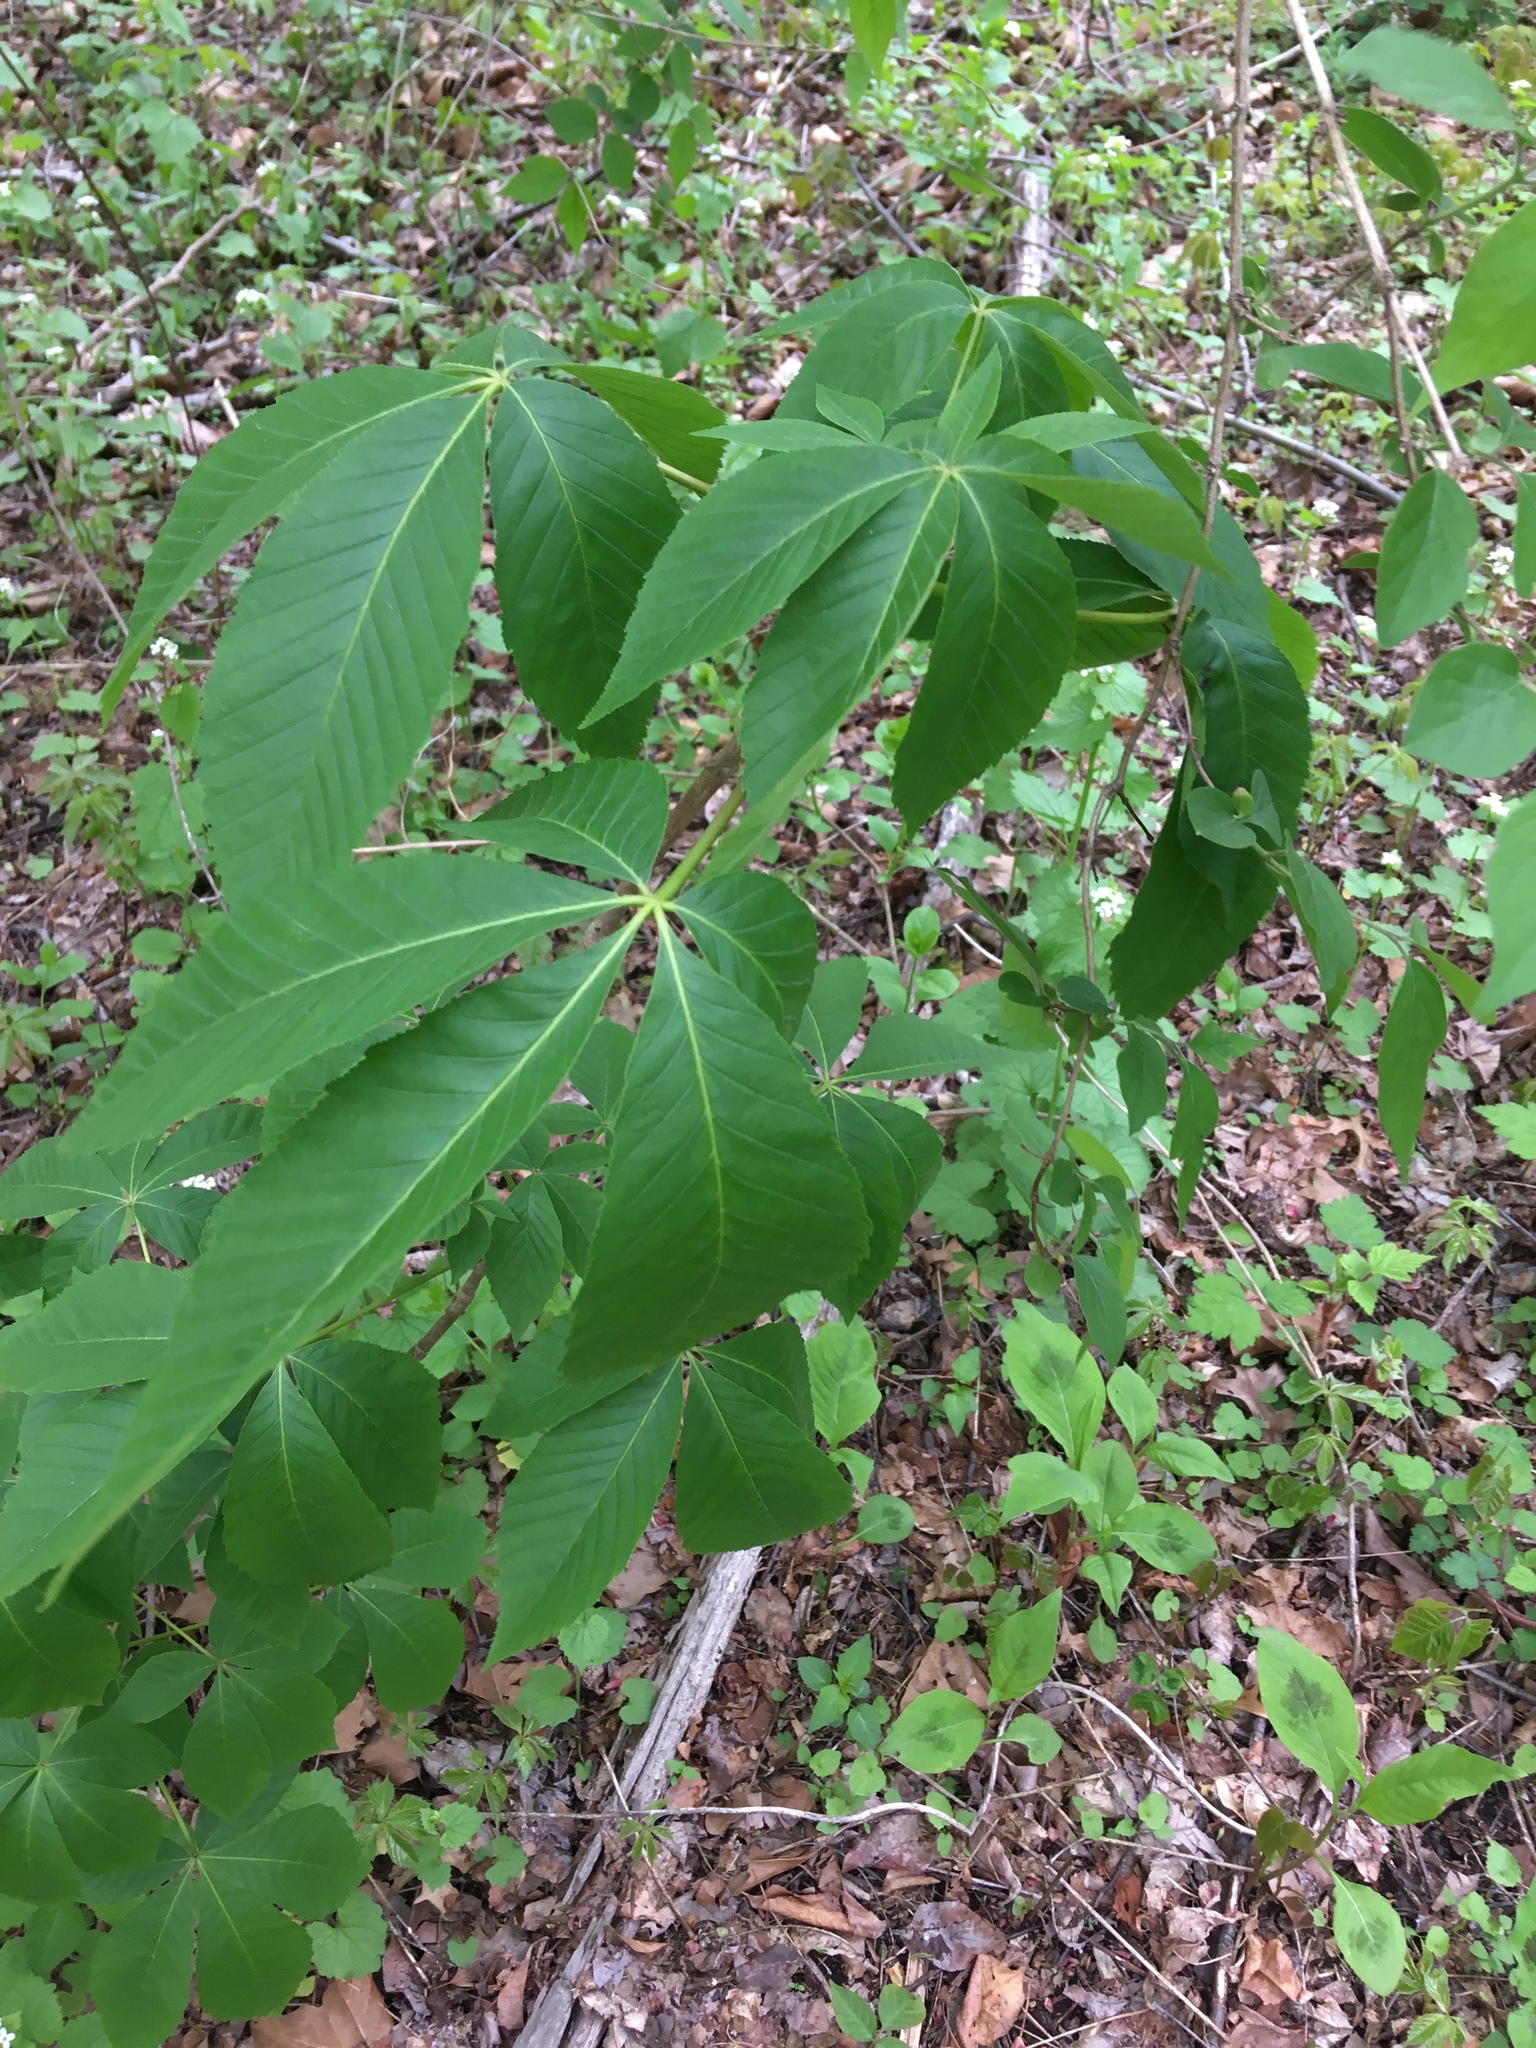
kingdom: Plantae
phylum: Tracheophyta
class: Magnoliopsida
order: Sapindales
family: Sapindaceae
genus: Aesculus
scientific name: Aesculus glabra
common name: Ohio buckeye
